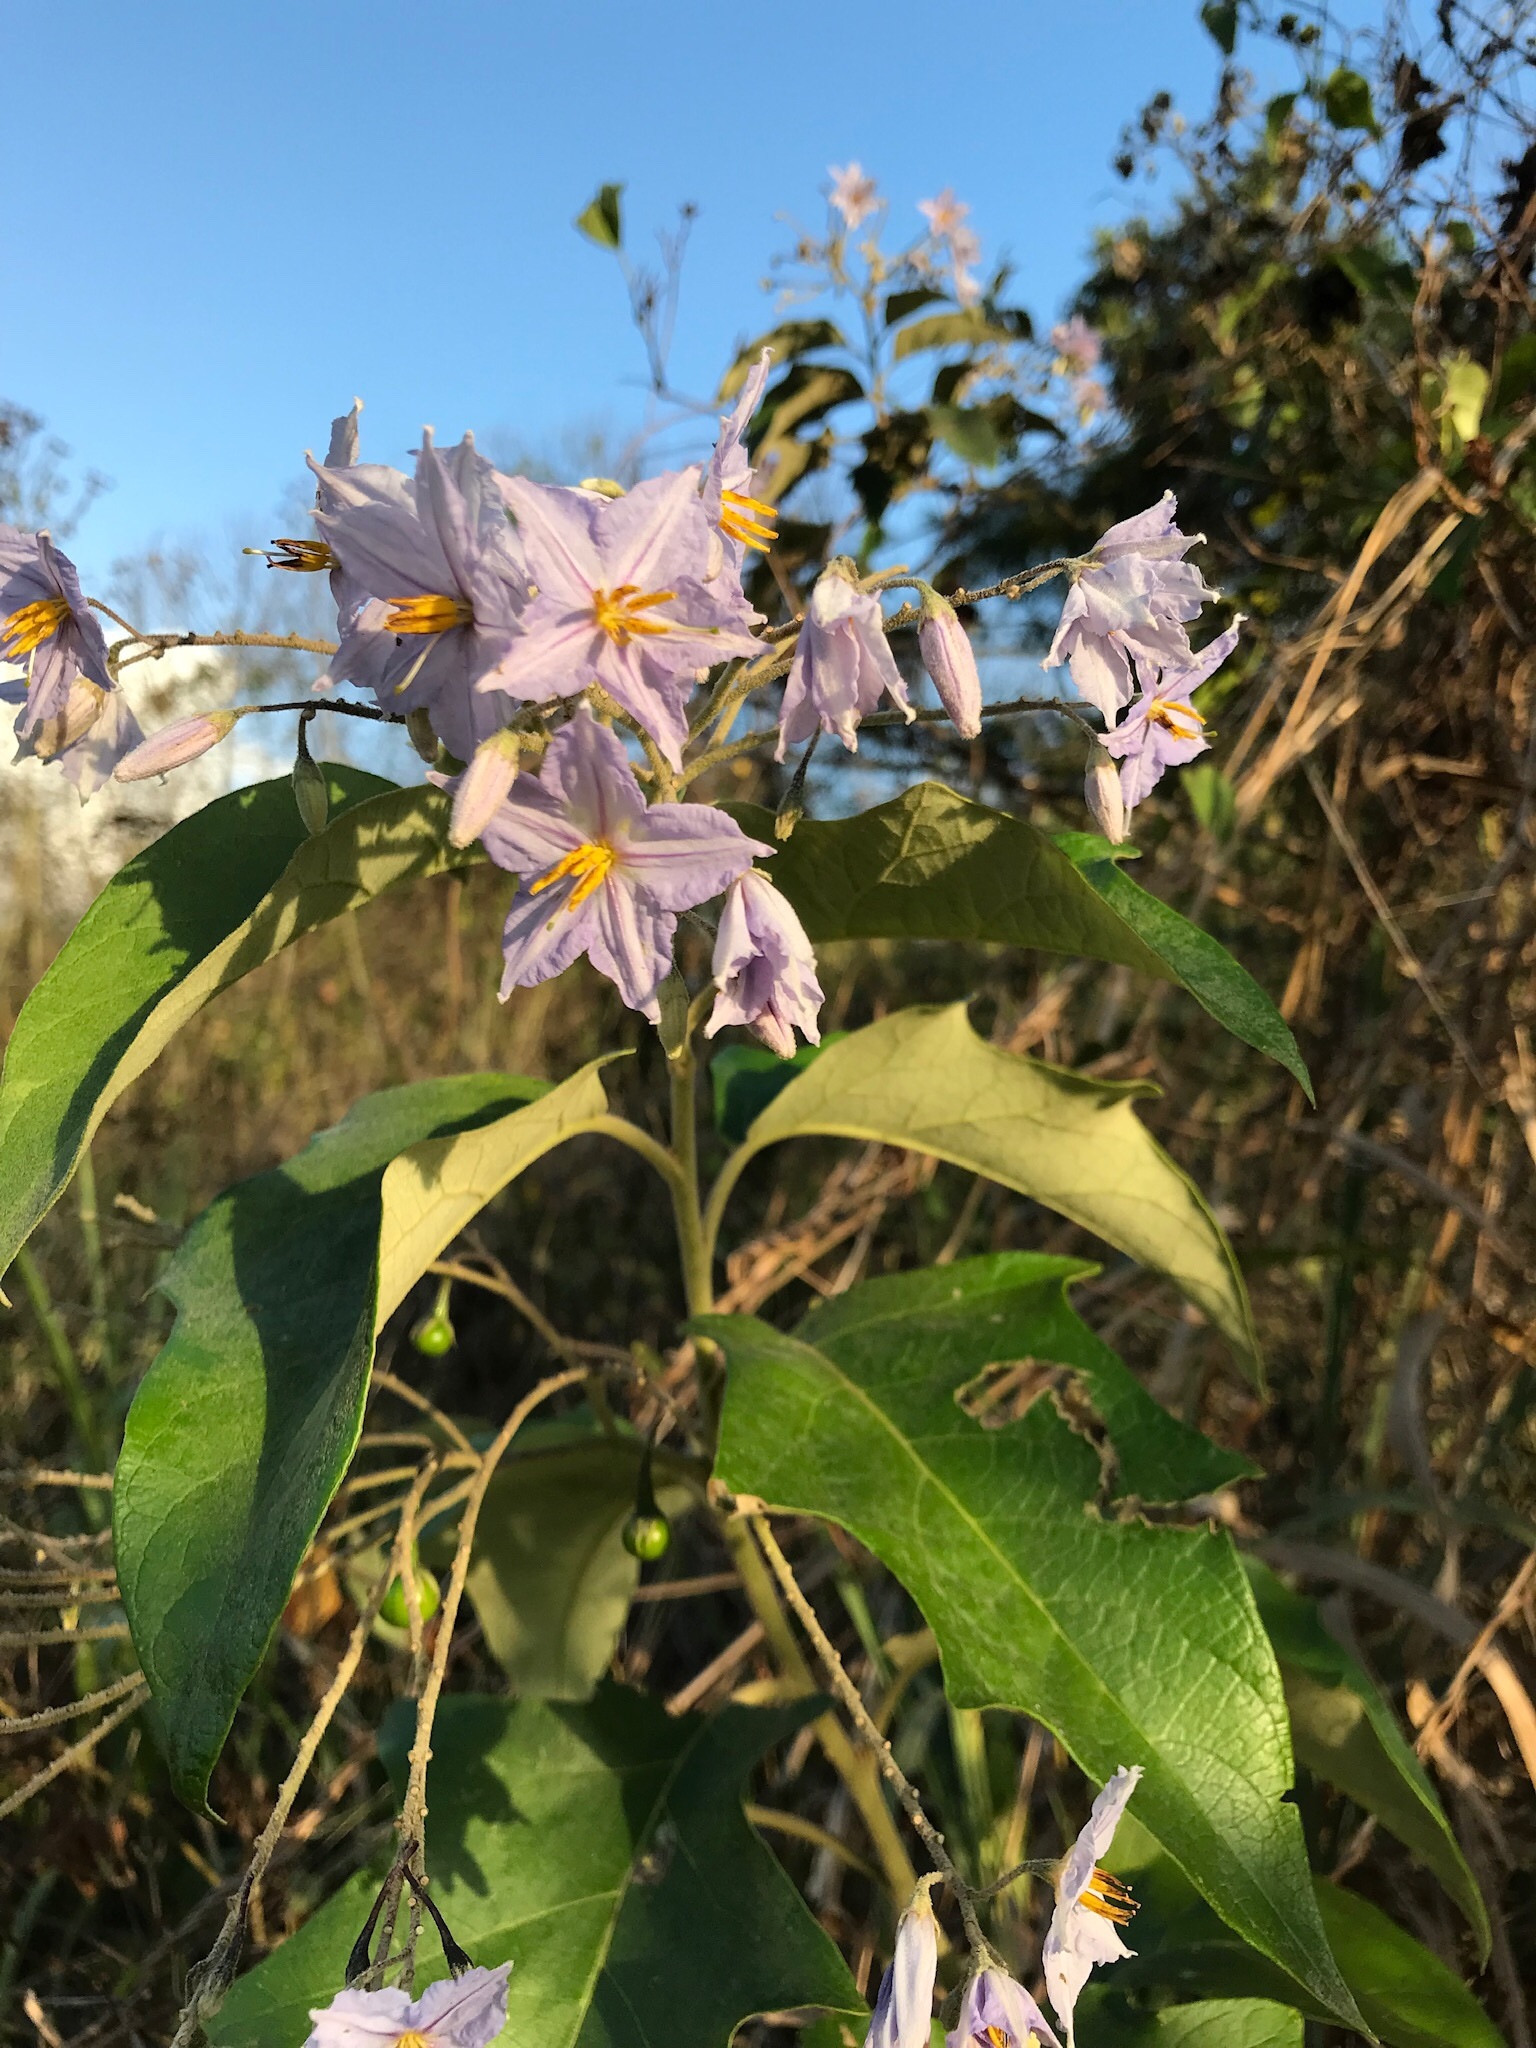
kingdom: Plantae
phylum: Tracheophyta
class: Magnoliopsida
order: Solanales
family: Solanaceae
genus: Solanum
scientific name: Solanum paniculatum
